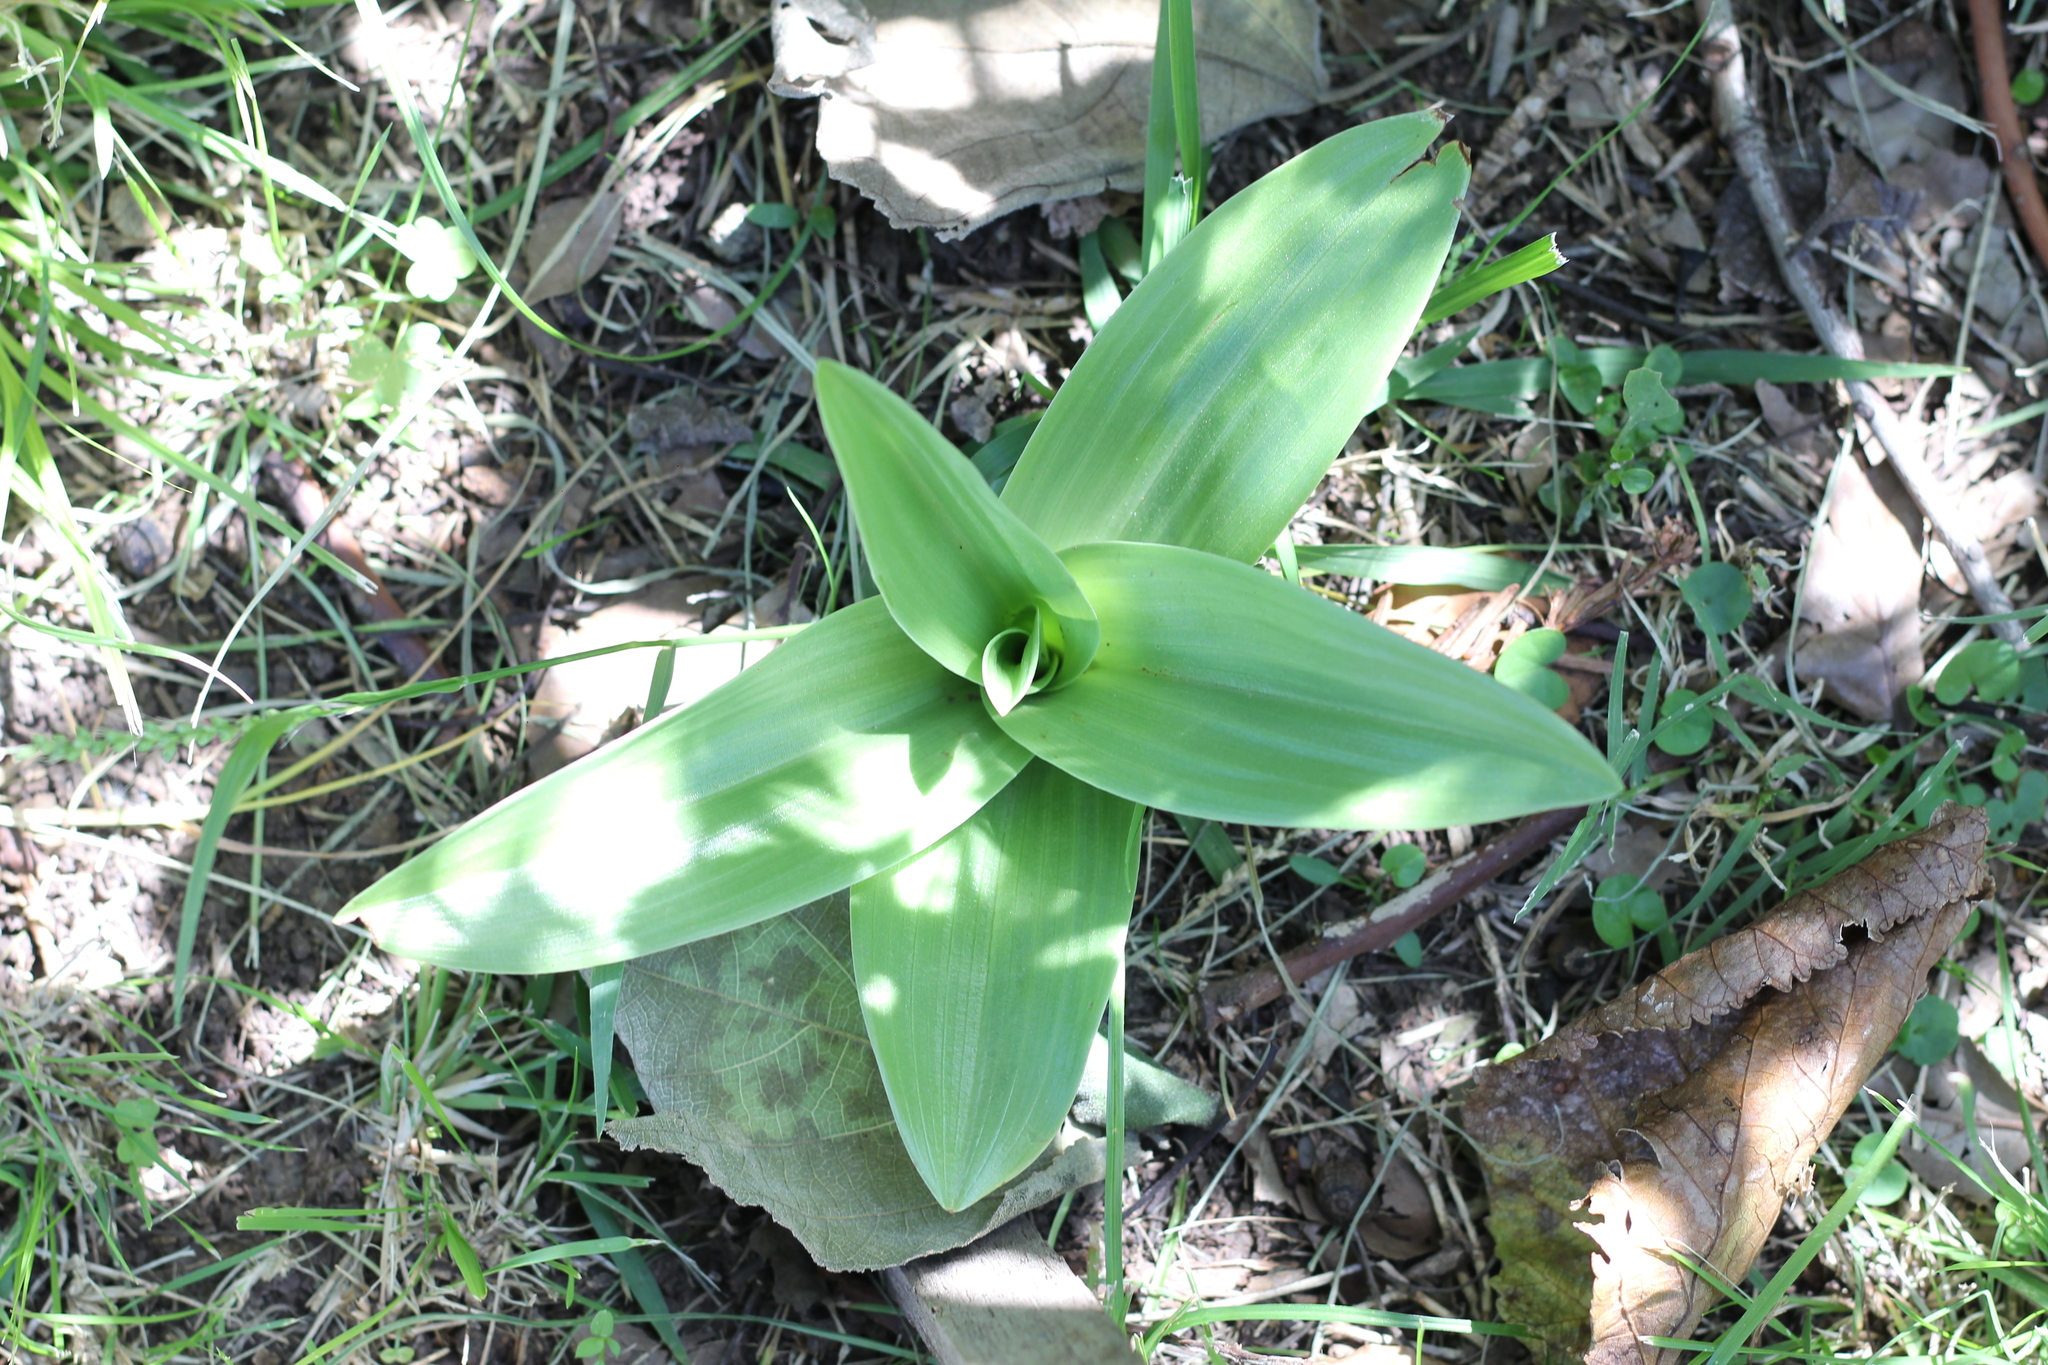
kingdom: Plantae
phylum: Tracheophyta
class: Liliopsida
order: Asparagales
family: Orchidaceae
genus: Chloraea
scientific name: Chloraea membranacea
